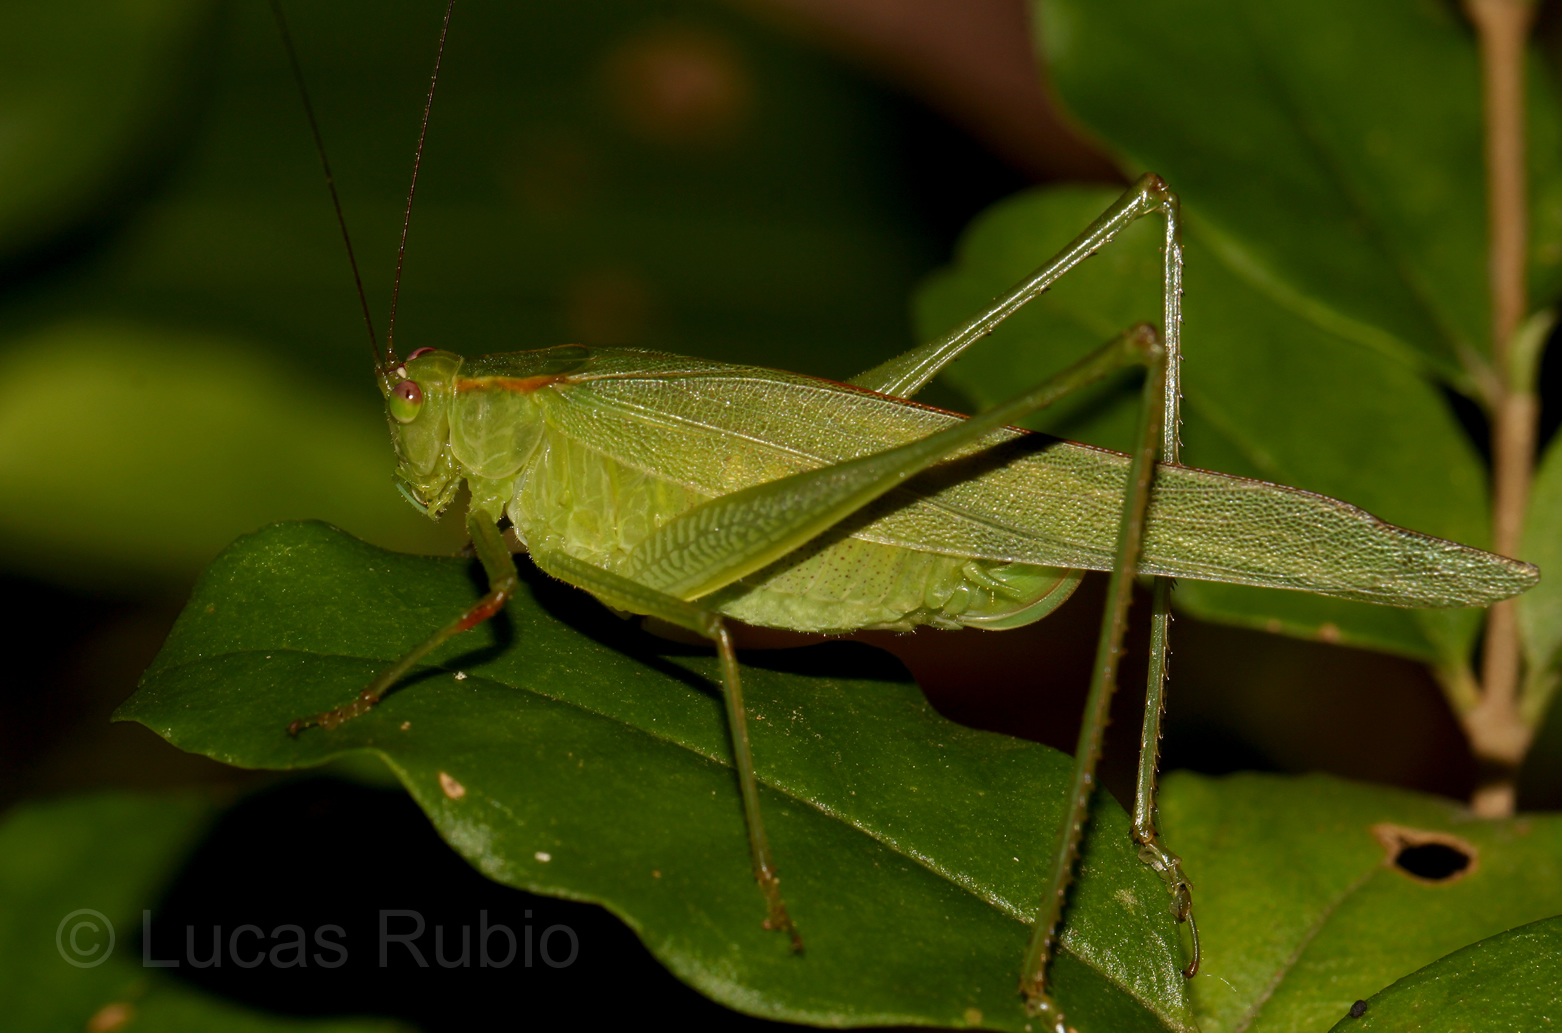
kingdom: Animalia
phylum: Arthropoda
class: Insecta
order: Orthoptera
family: Tettigoniidae
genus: Ligocatinus
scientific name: Ligocatinus spinatus
